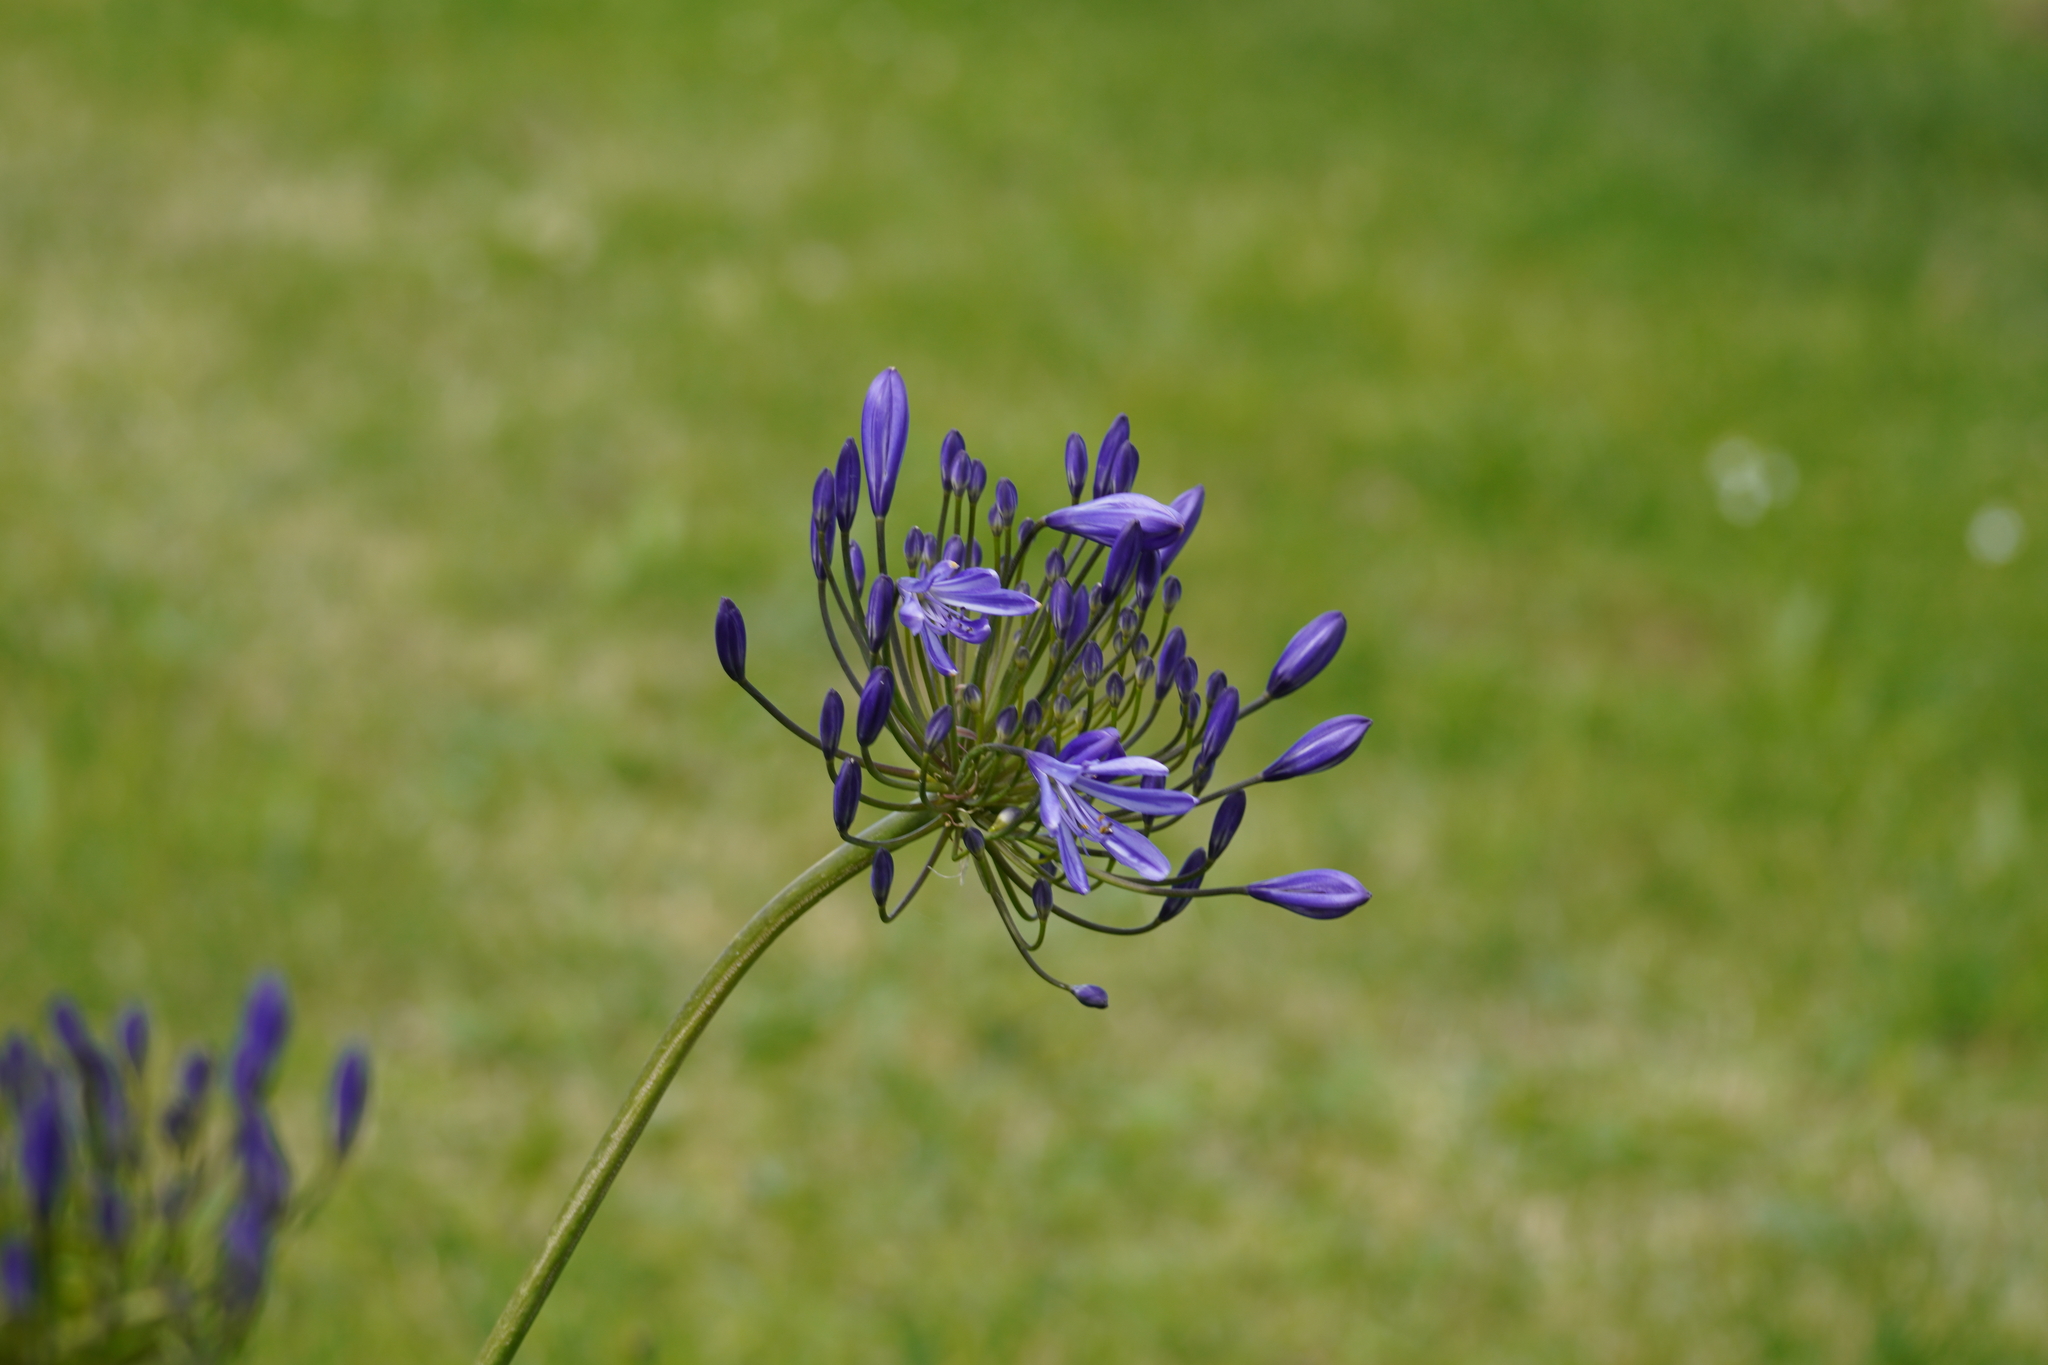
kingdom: Plantae
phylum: Tracheophyta
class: Liliopsida
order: Asparagales
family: Amaryllidaceae
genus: Agapanthus
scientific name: Agapanthus praecox
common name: African-lily
